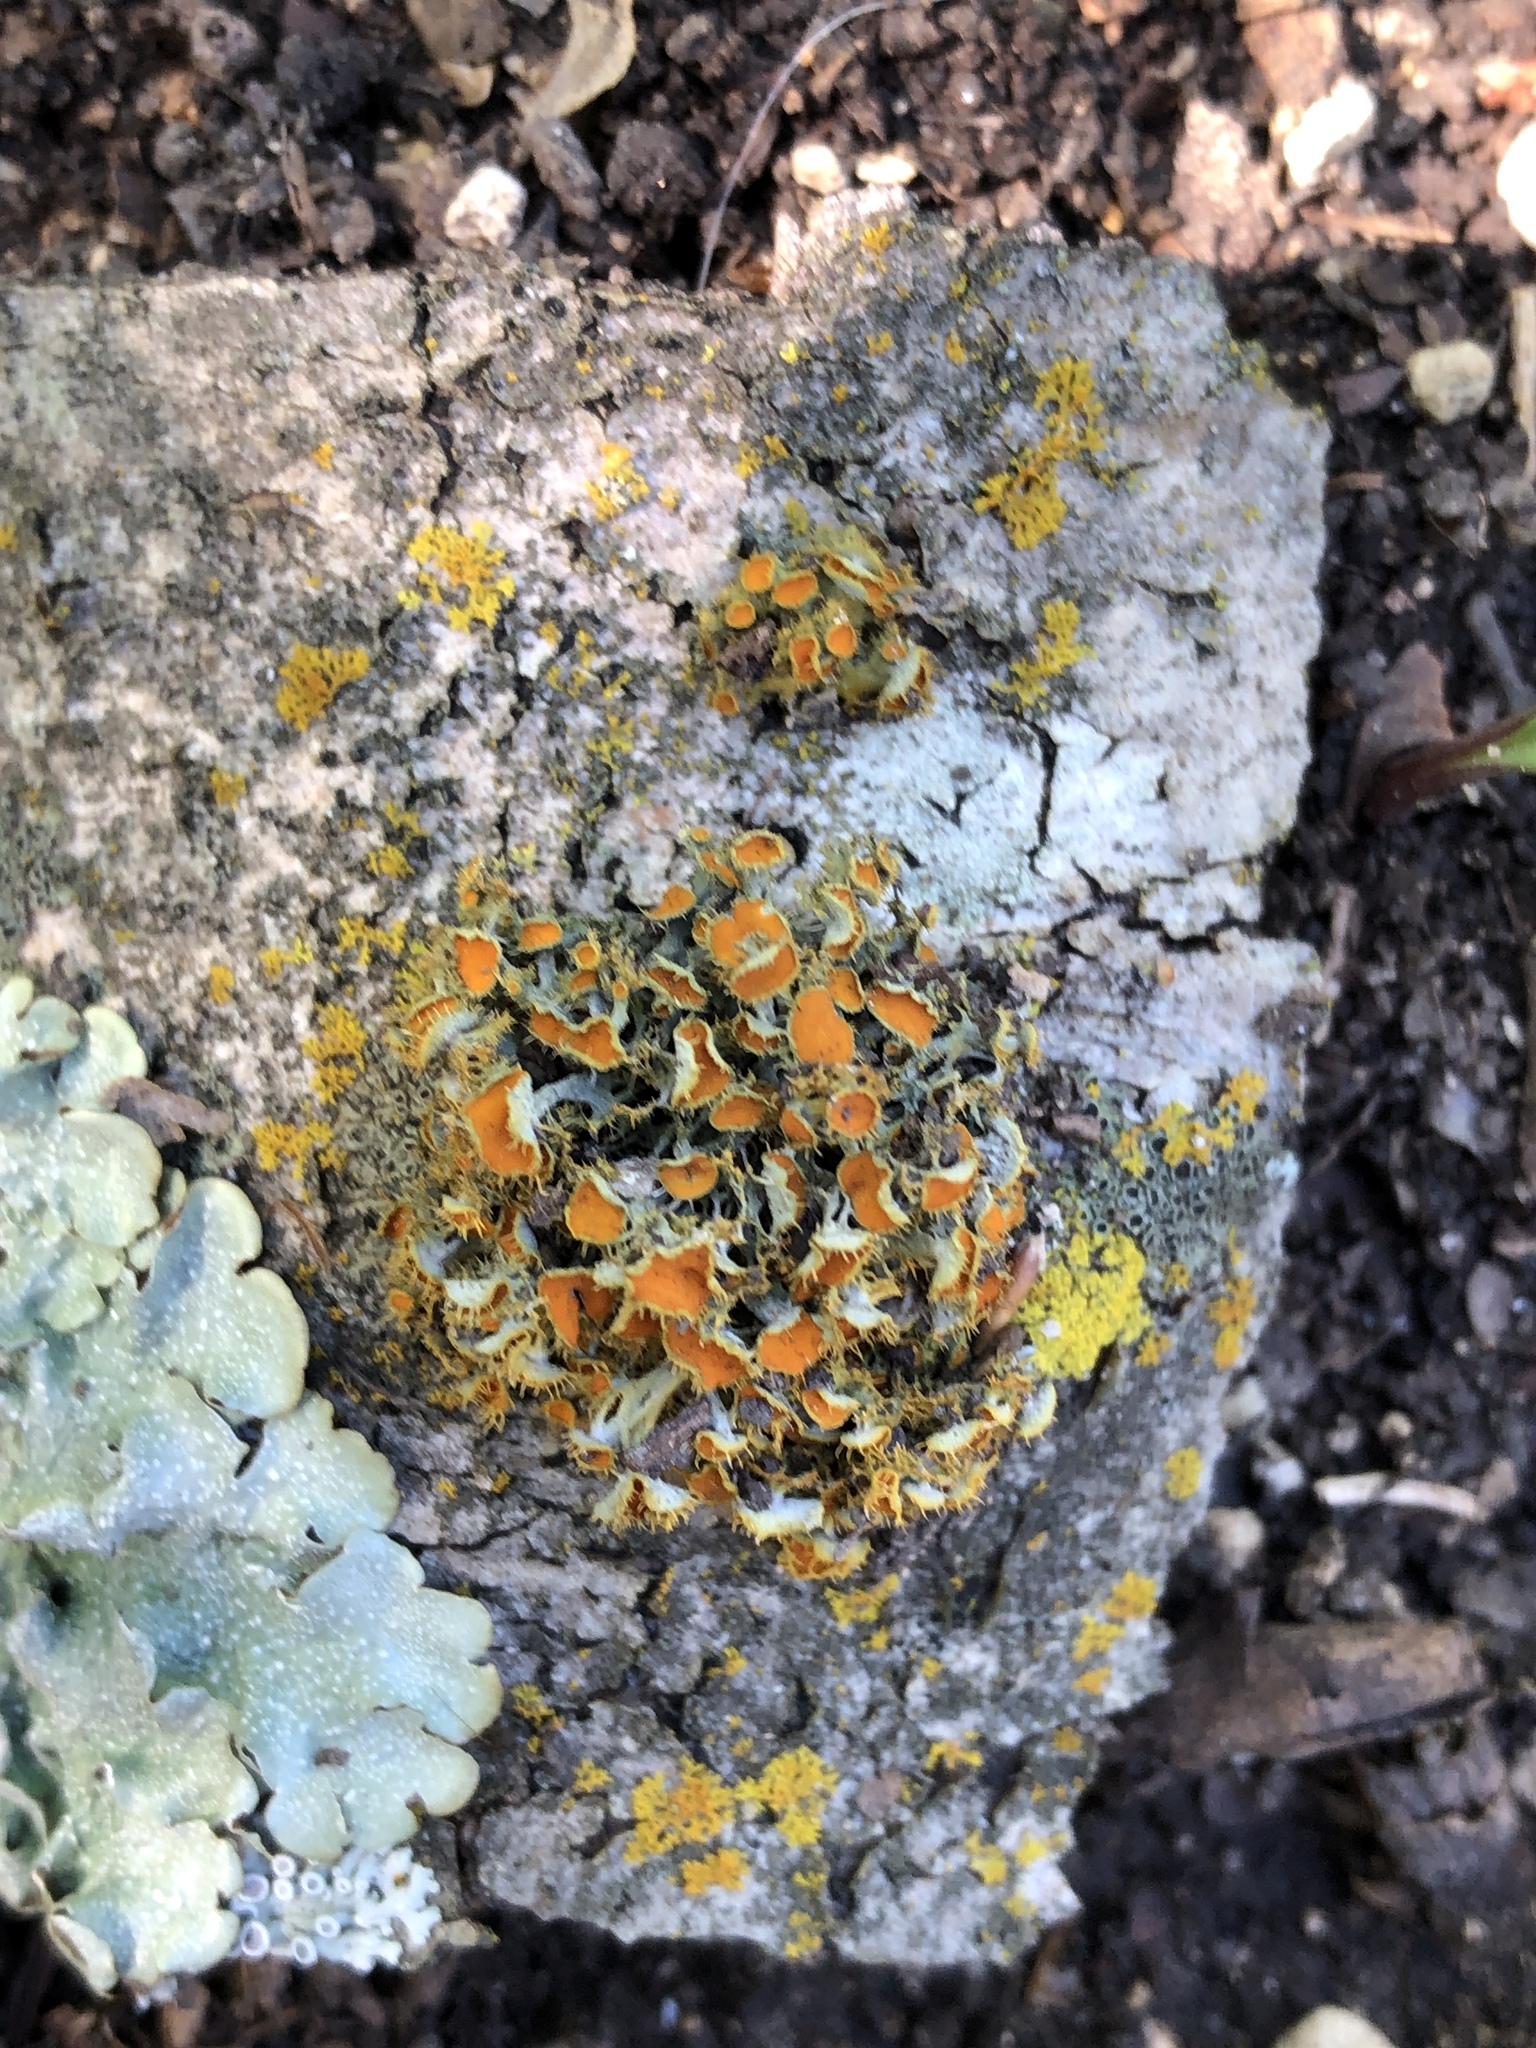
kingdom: Fungi
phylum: Ascomycota
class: Lecanoromycetes
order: Teloschistales
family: Teloschistaceae
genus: Niorma
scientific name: Niorma chrysophthalma
